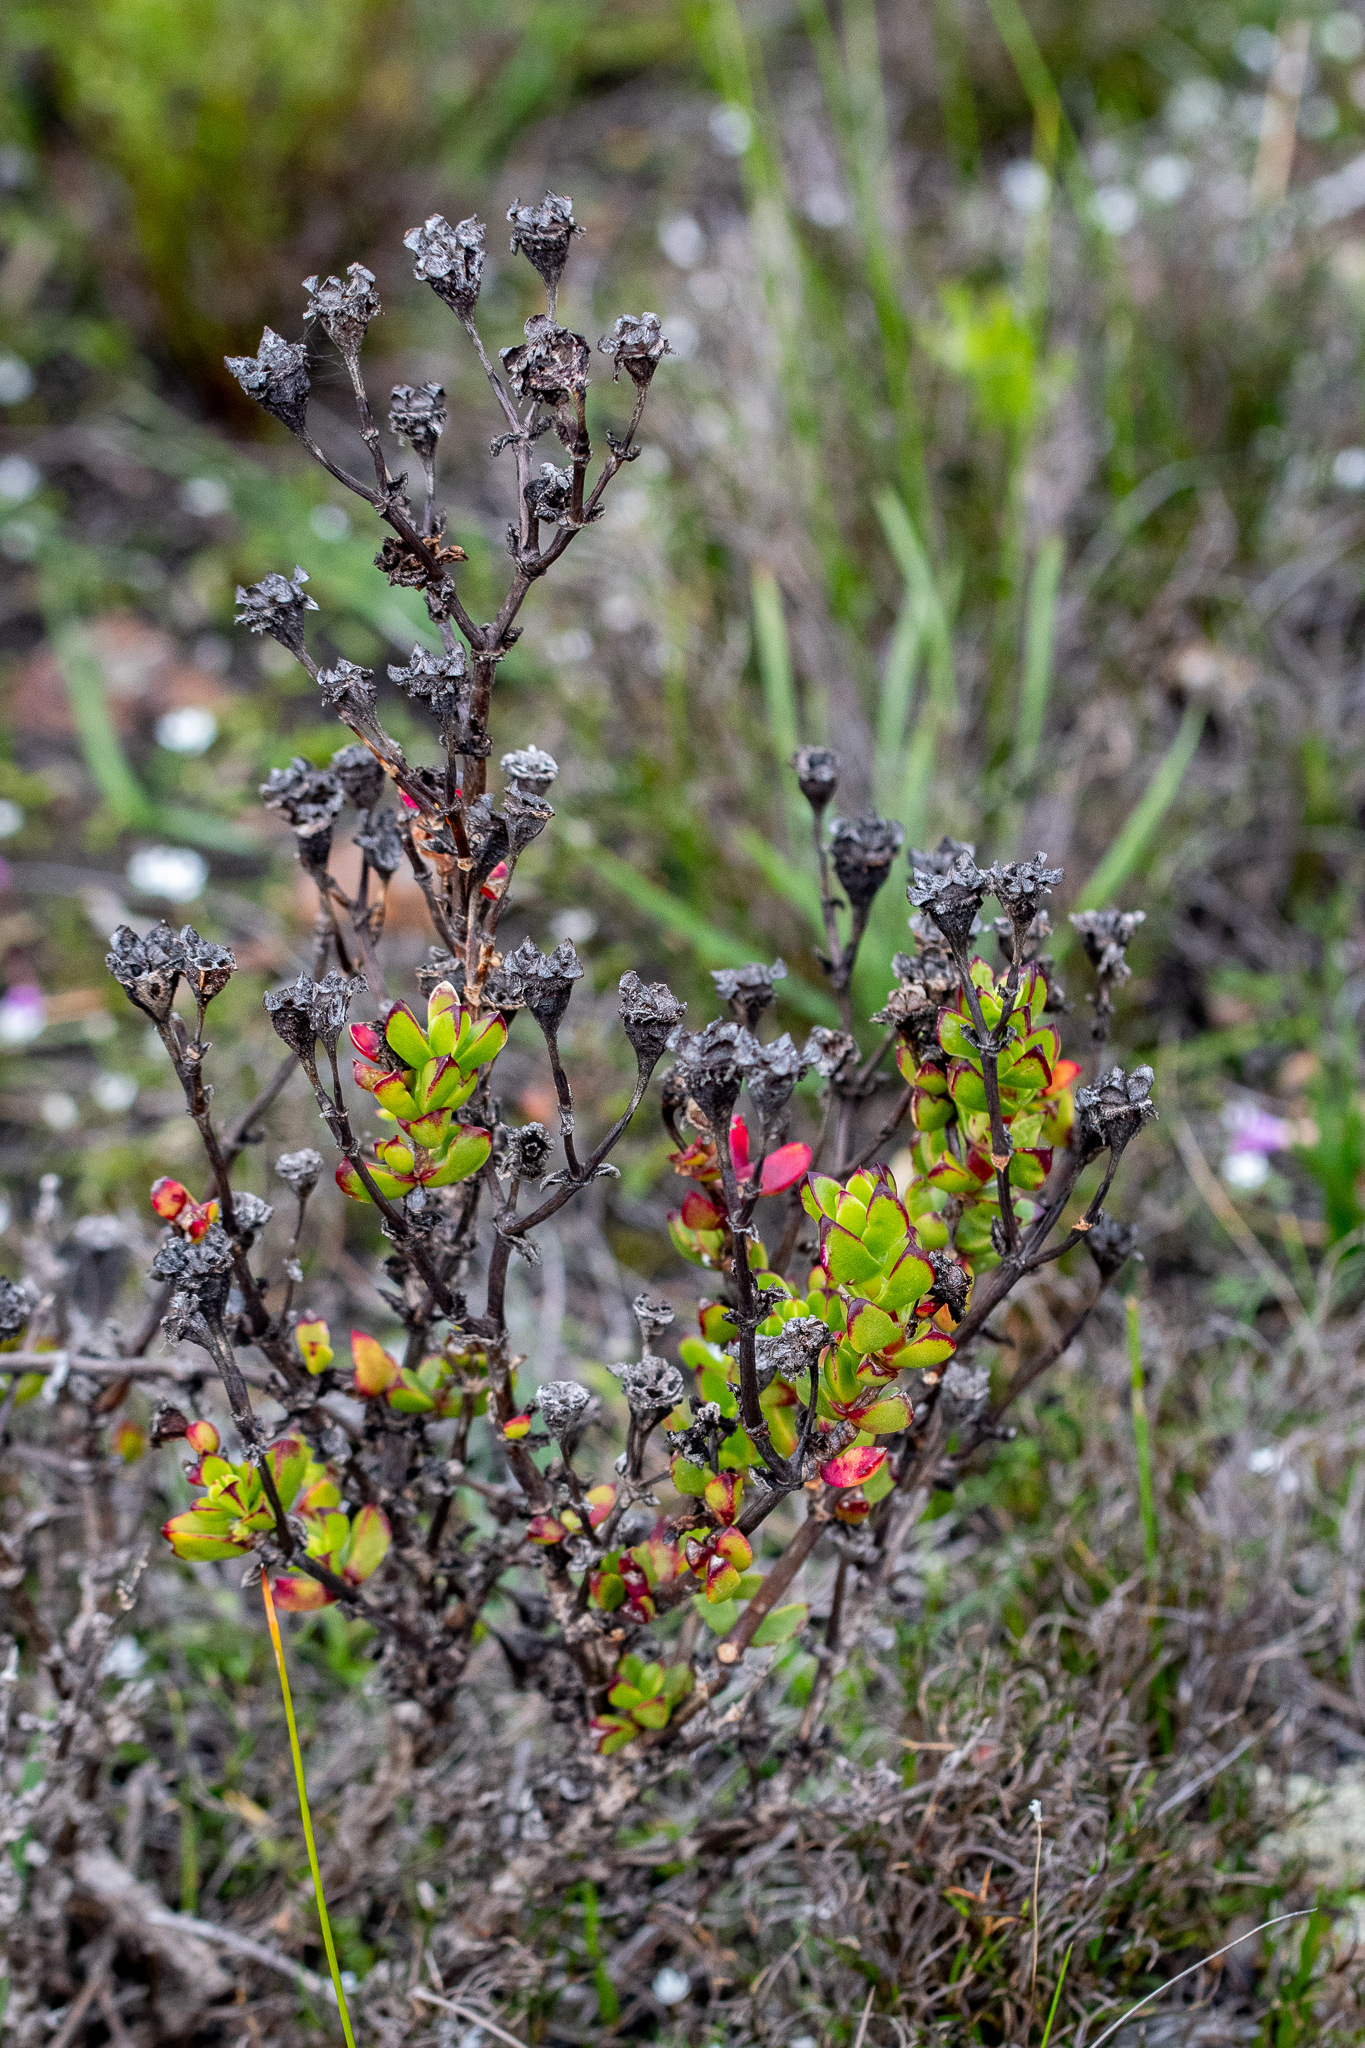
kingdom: Plantae
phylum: Tracheophyta
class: Magnoliopsida
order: Caryophyllales
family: Aizoaceae
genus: Erepsia
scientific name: Erepsia inclaudens
